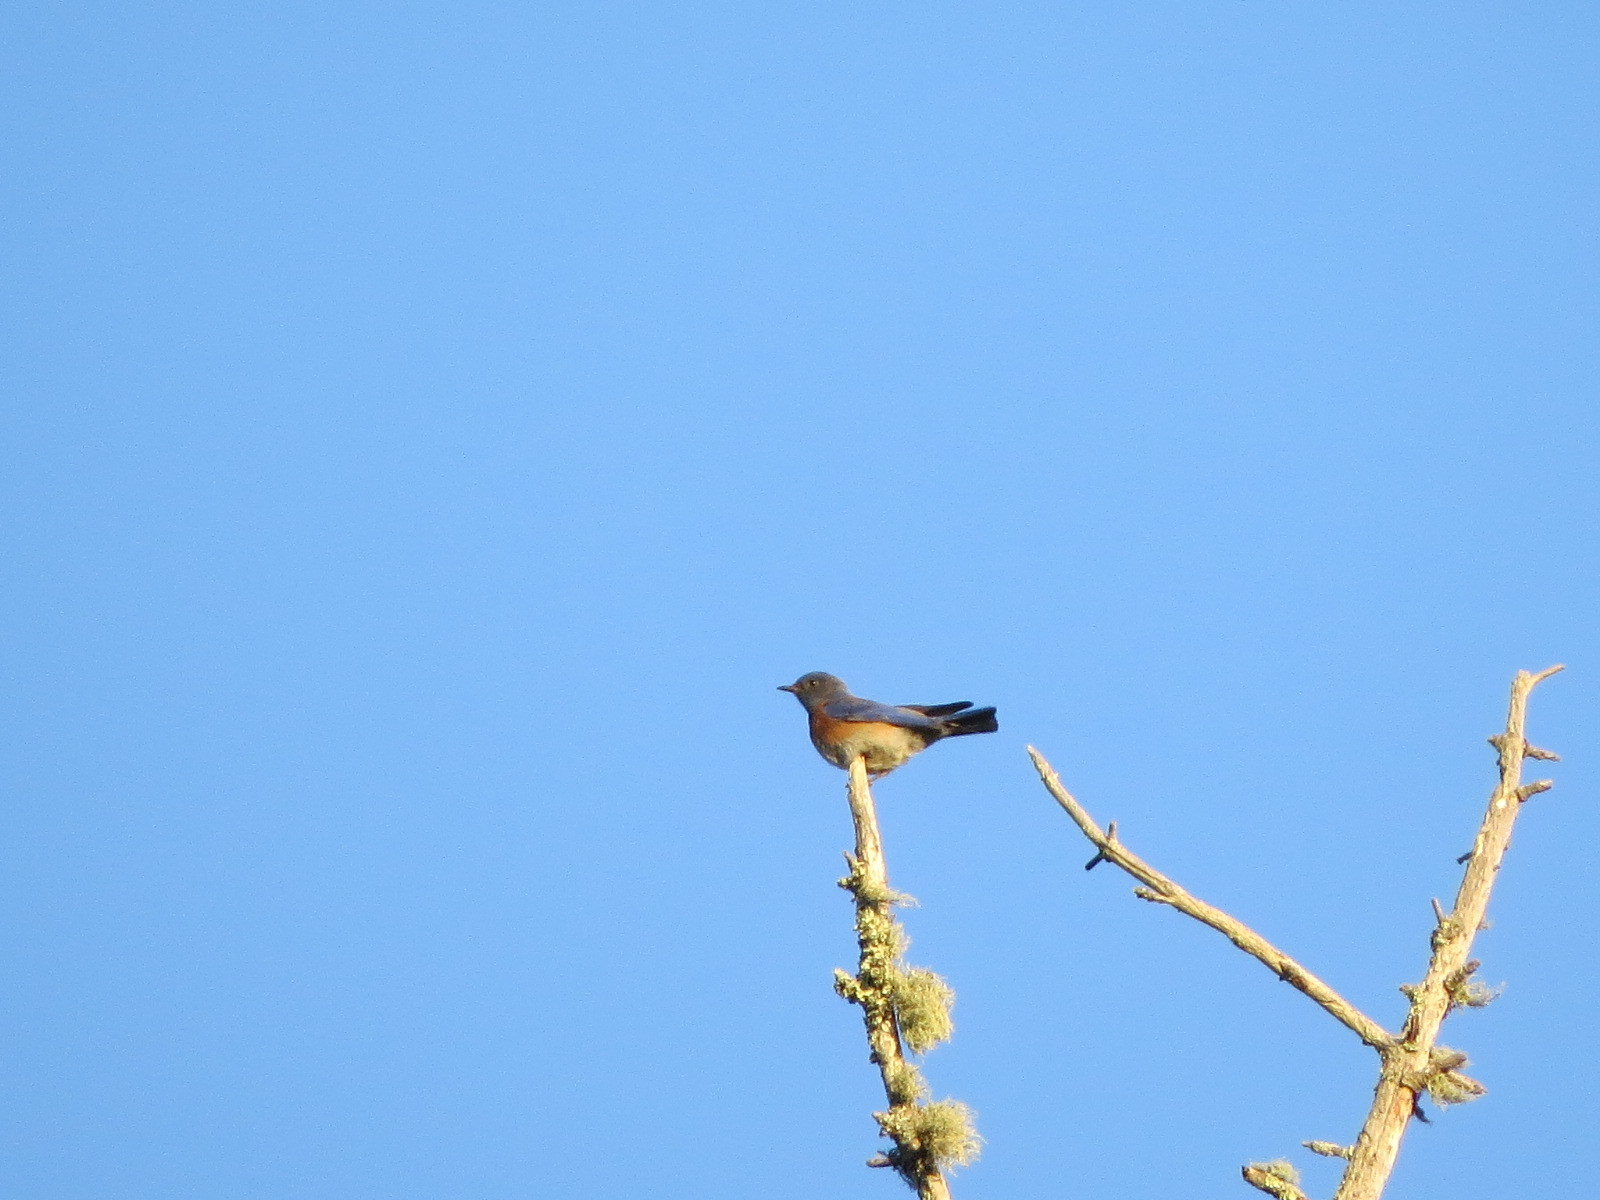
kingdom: Animalia
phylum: Chordata
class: Aves
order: Passeriformes
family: Turdidae
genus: Sialia
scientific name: Sialia mexicana
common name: Western bluebird
